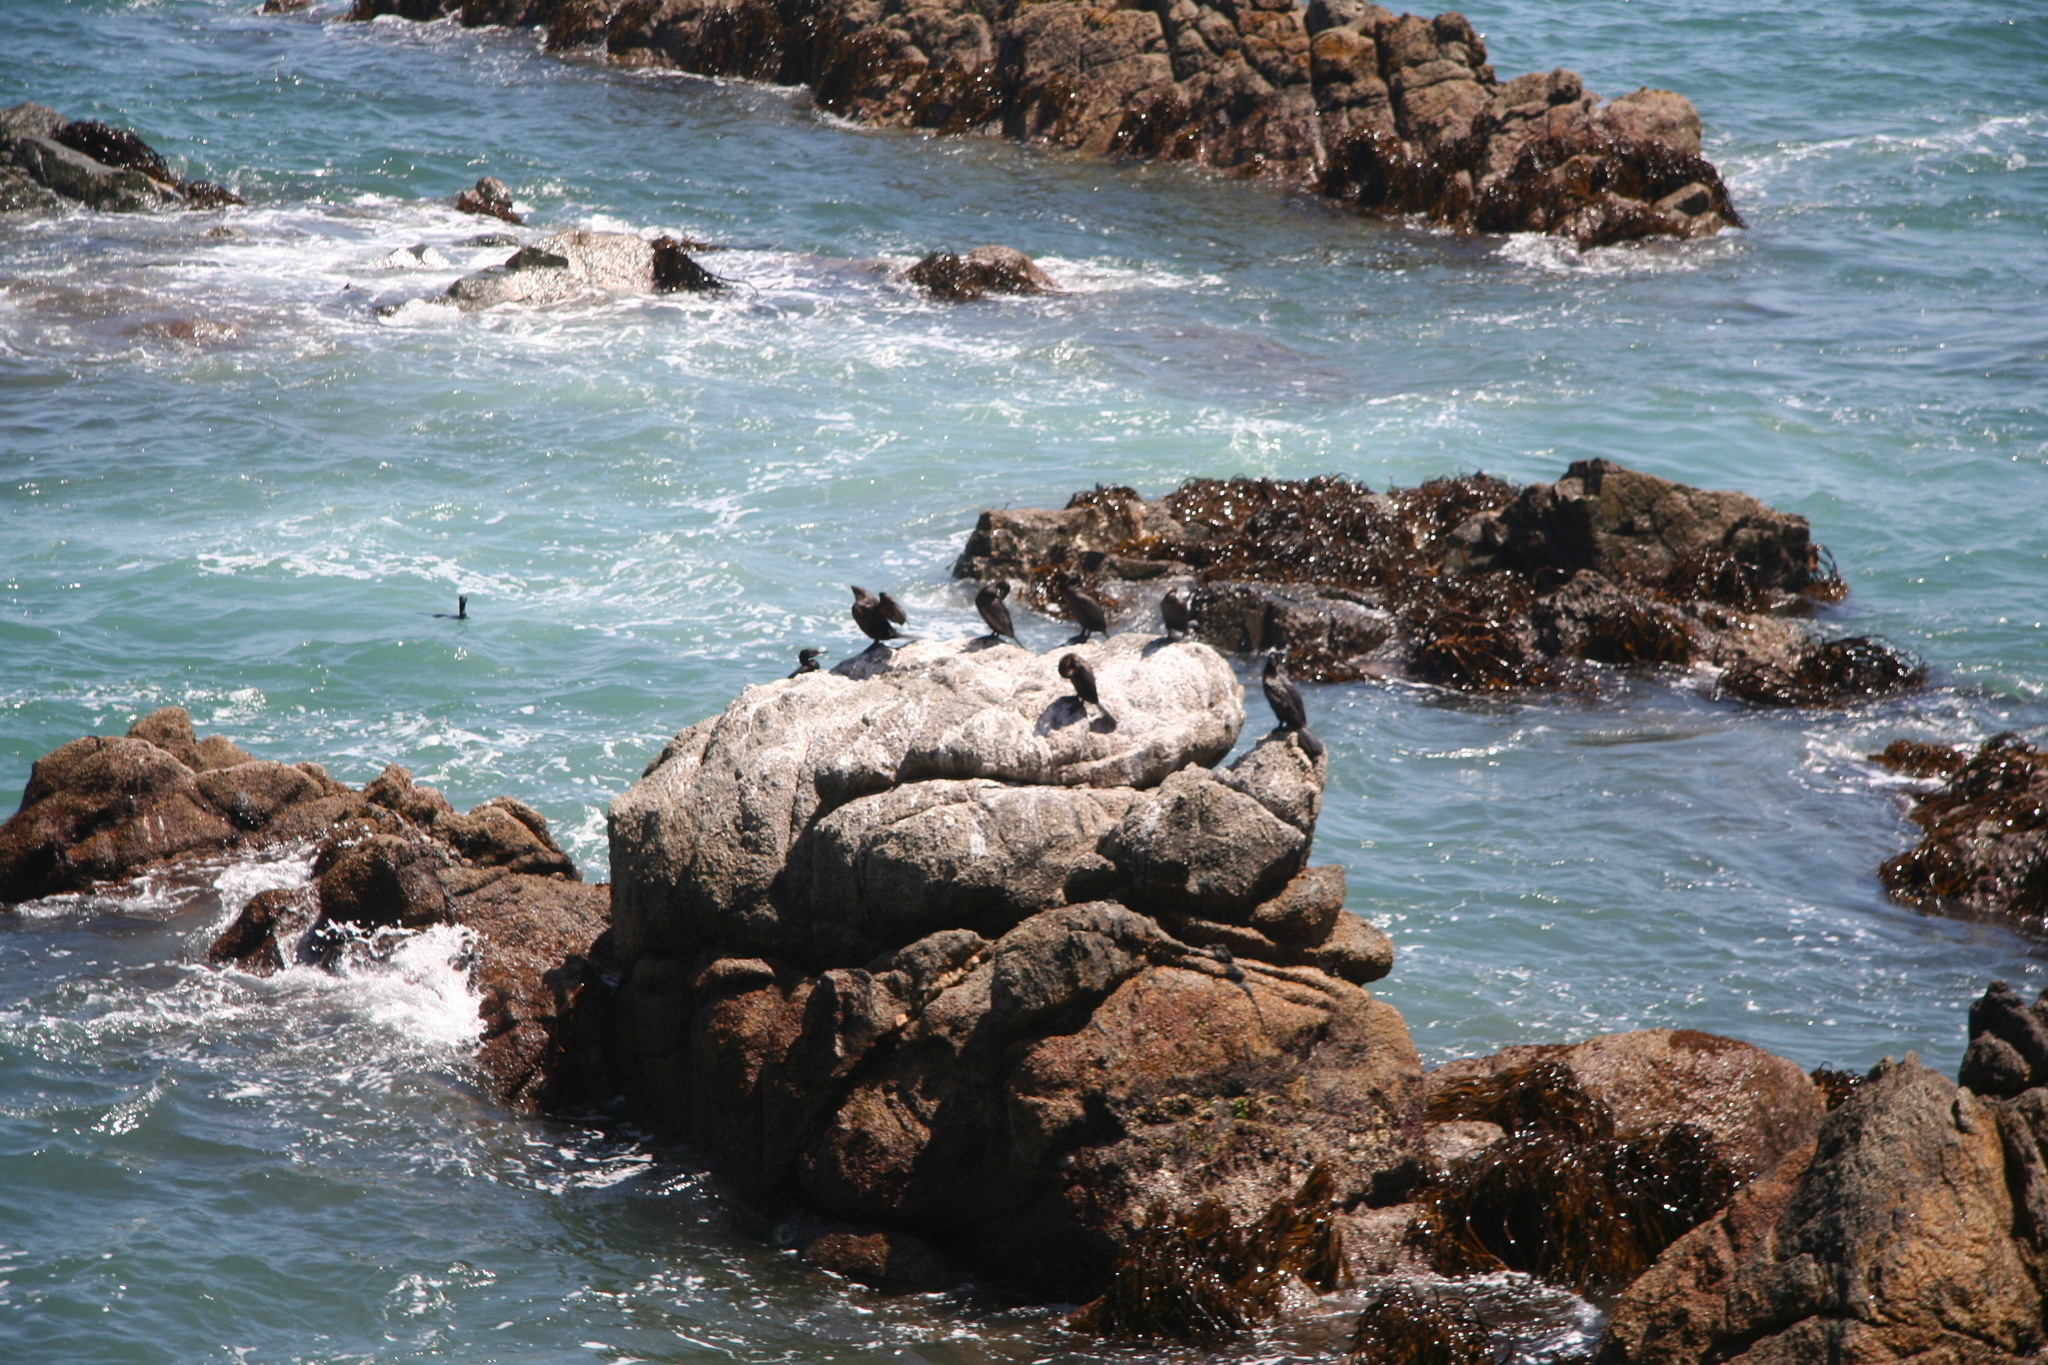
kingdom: Animalia
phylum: Chordata
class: Aves
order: Suliformes
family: Phalacrocoracidae
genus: Phalacrocorax
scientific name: Phalacrocorax brasilianus
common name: Neotropic cormorant
